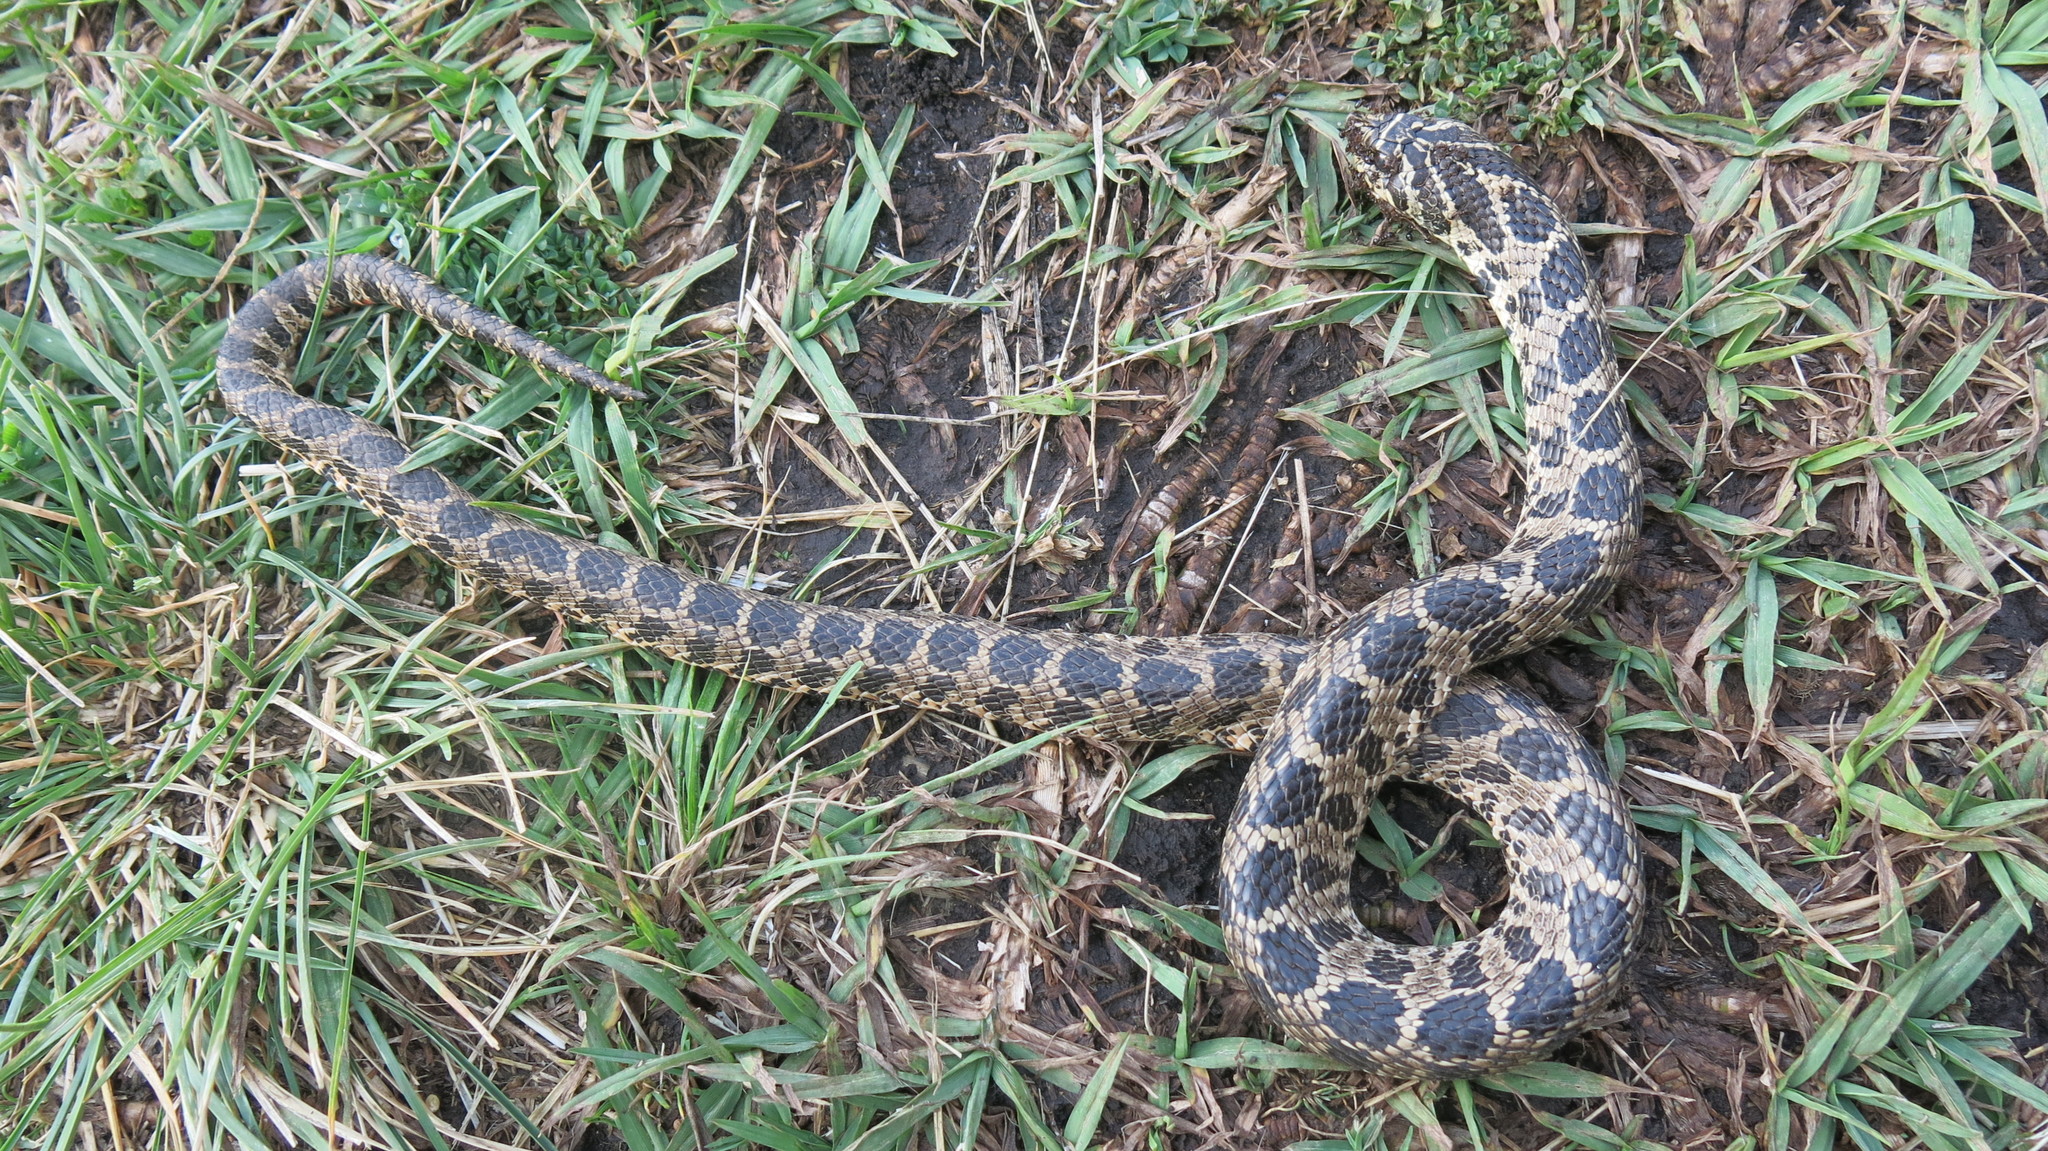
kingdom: Animalia
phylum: Chordata
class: Squamata
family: Colubridae
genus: Xenodon
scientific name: Xenodon dorbignyi
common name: South american hognose snake
